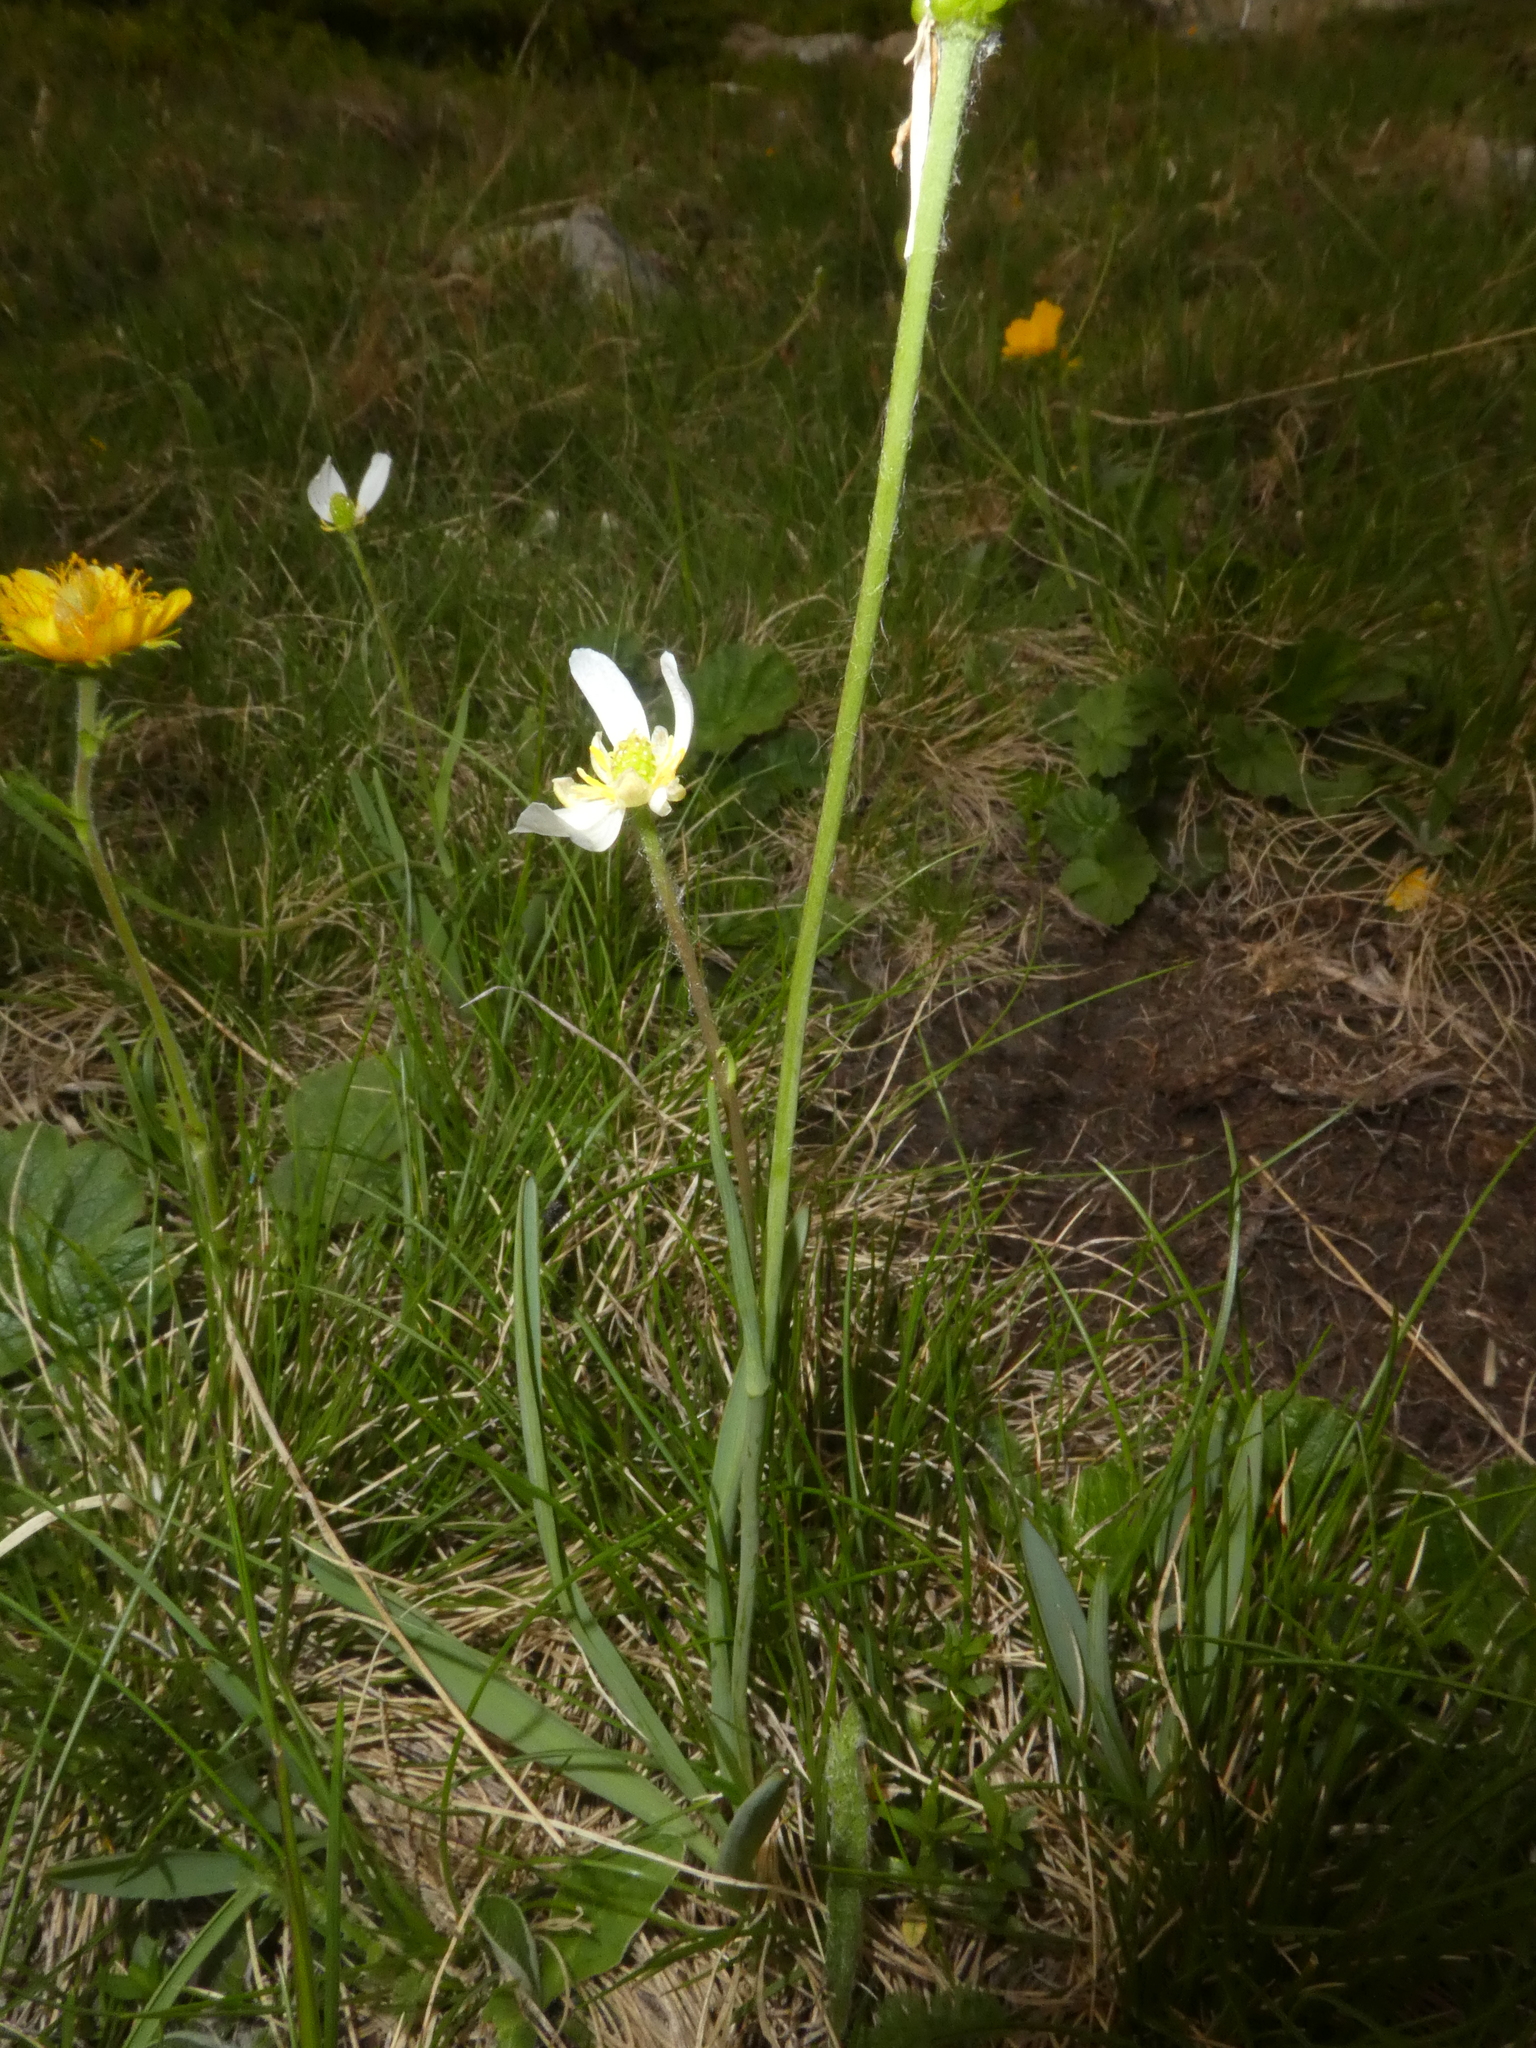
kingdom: Plantae
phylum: Tracheophyta
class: Magnoliopsida
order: Ranunculales
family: Ranunculaceae
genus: Ranunculus
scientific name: Ranunculus kuepferi
